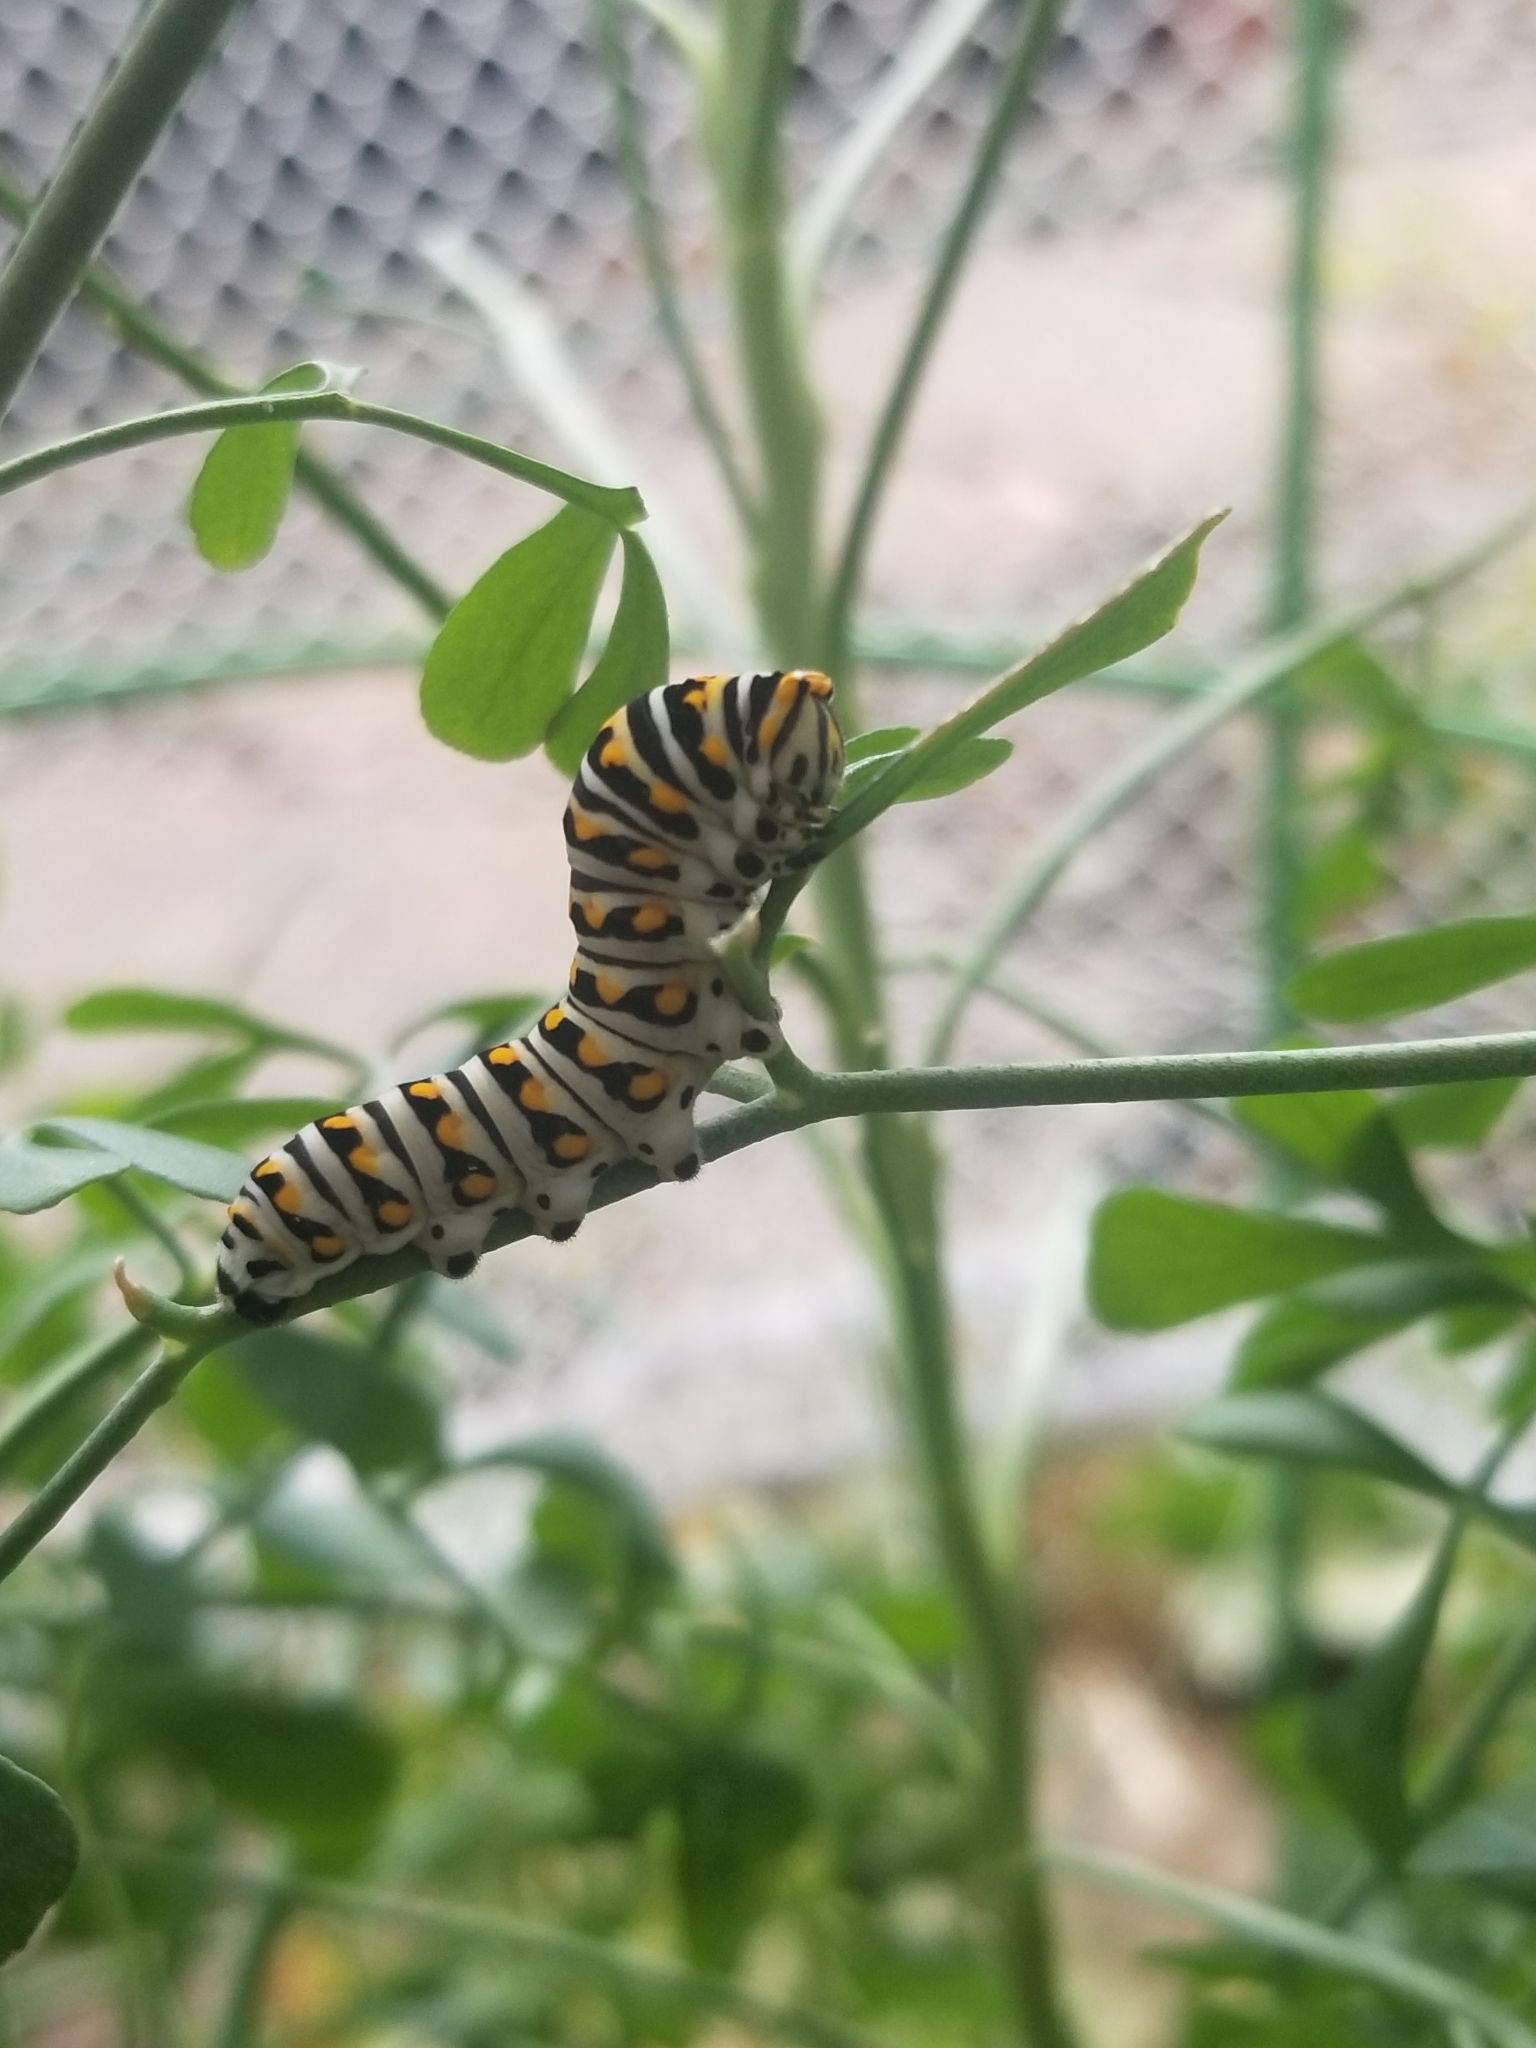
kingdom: Animalia
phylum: Arthropoda
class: Insecta
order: Lepidoptera
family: Papilionidae
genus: Papilio
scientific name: Papilio polyxenes
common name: Black swallowtail
